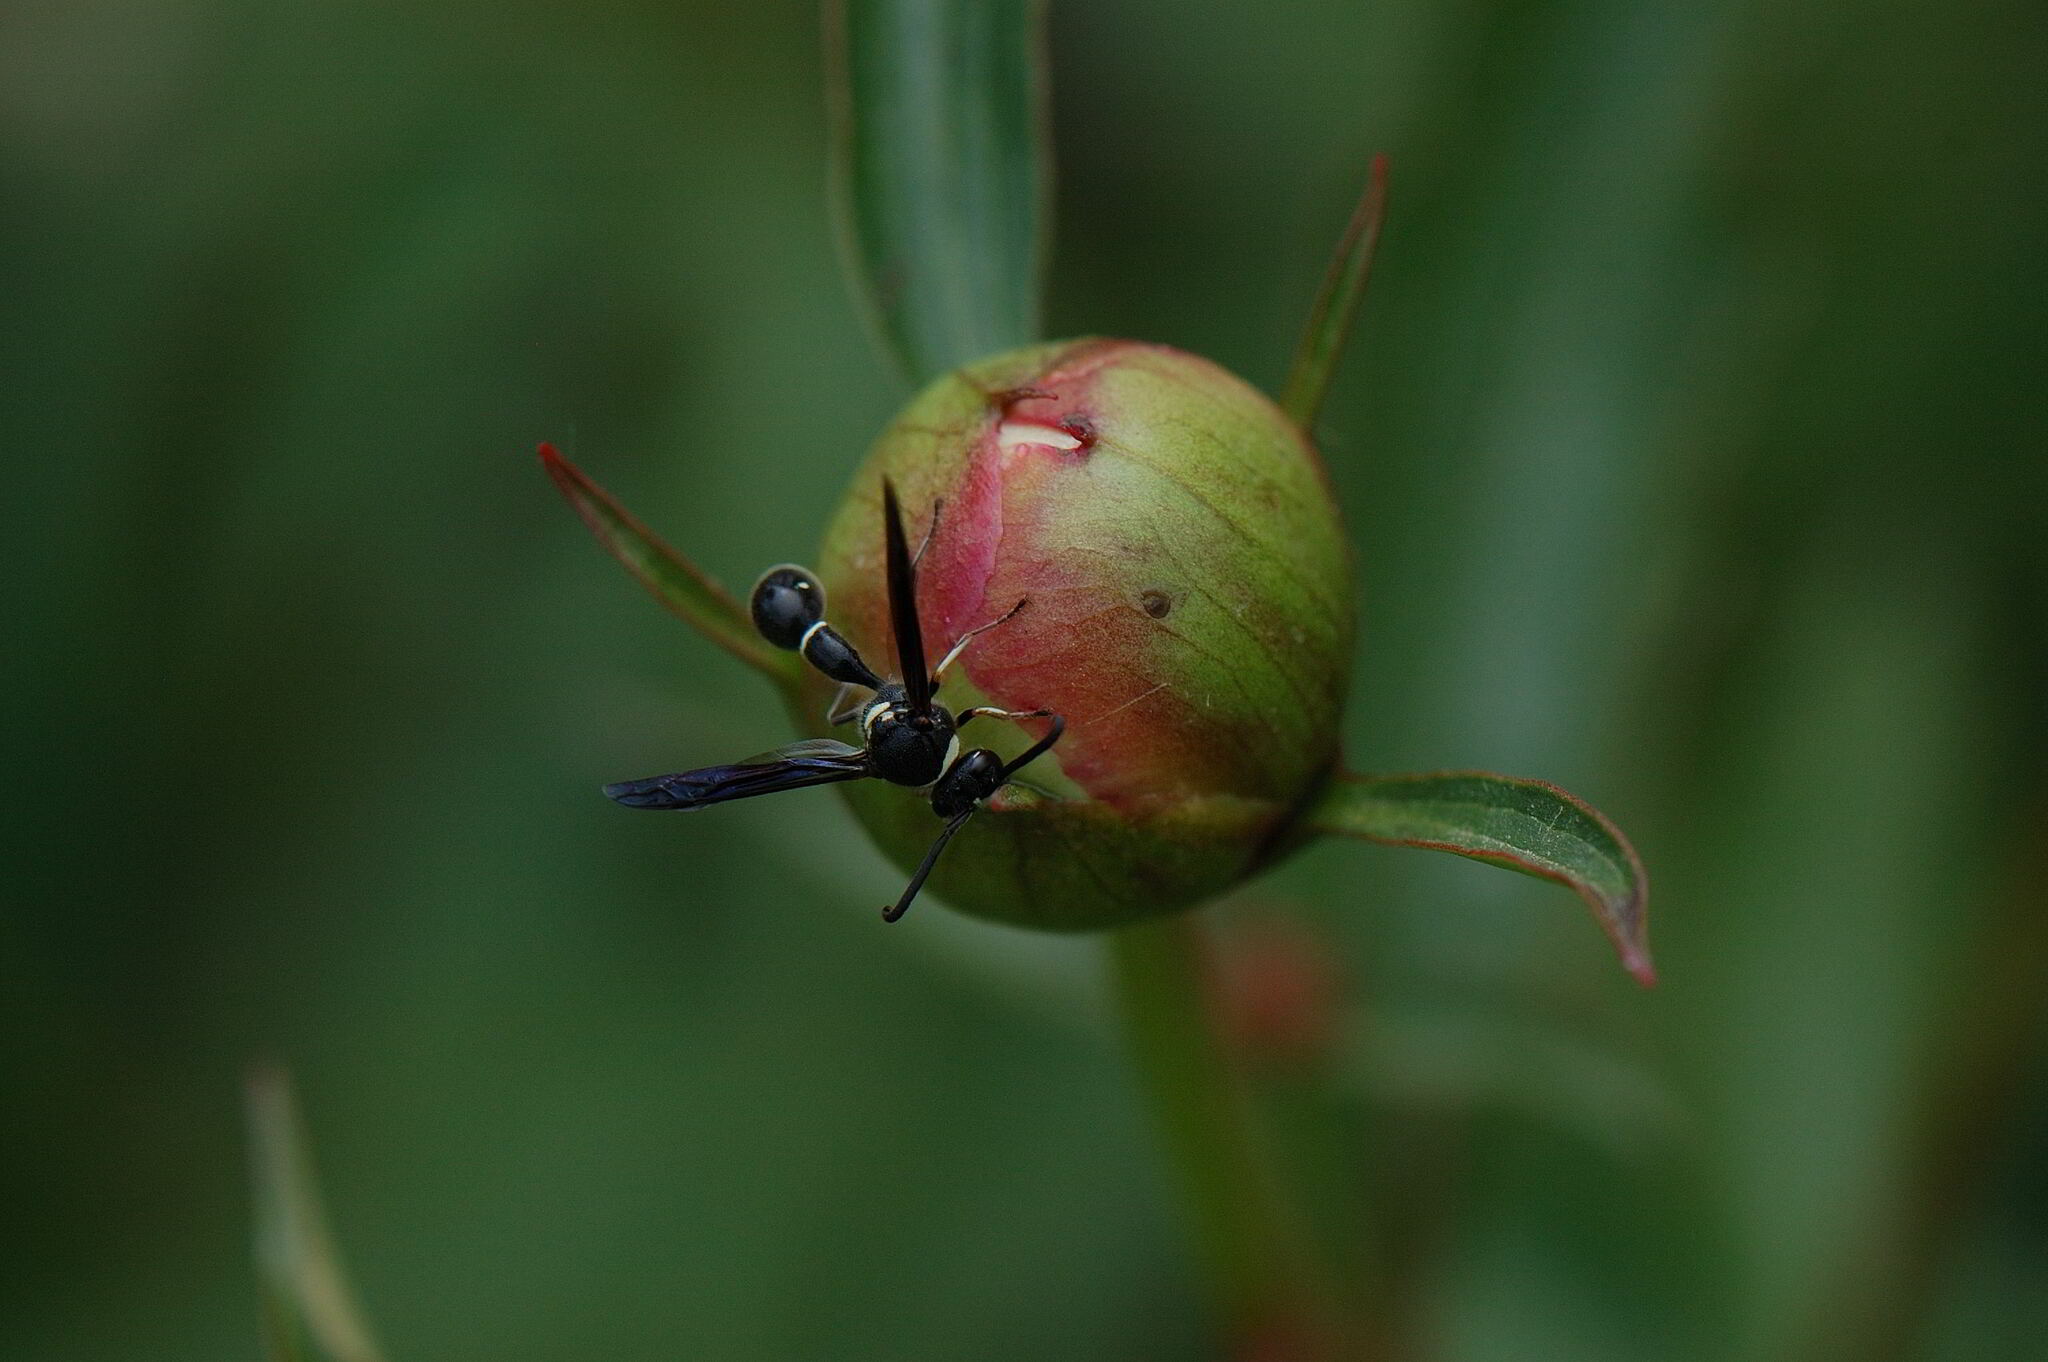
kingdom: Animalia
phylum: Arthropoda
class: Insecta
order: Hymenoptera
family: Vespidae
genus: Eumenes
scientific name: Eumenes fraternus
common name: Fraternal potter wasp
